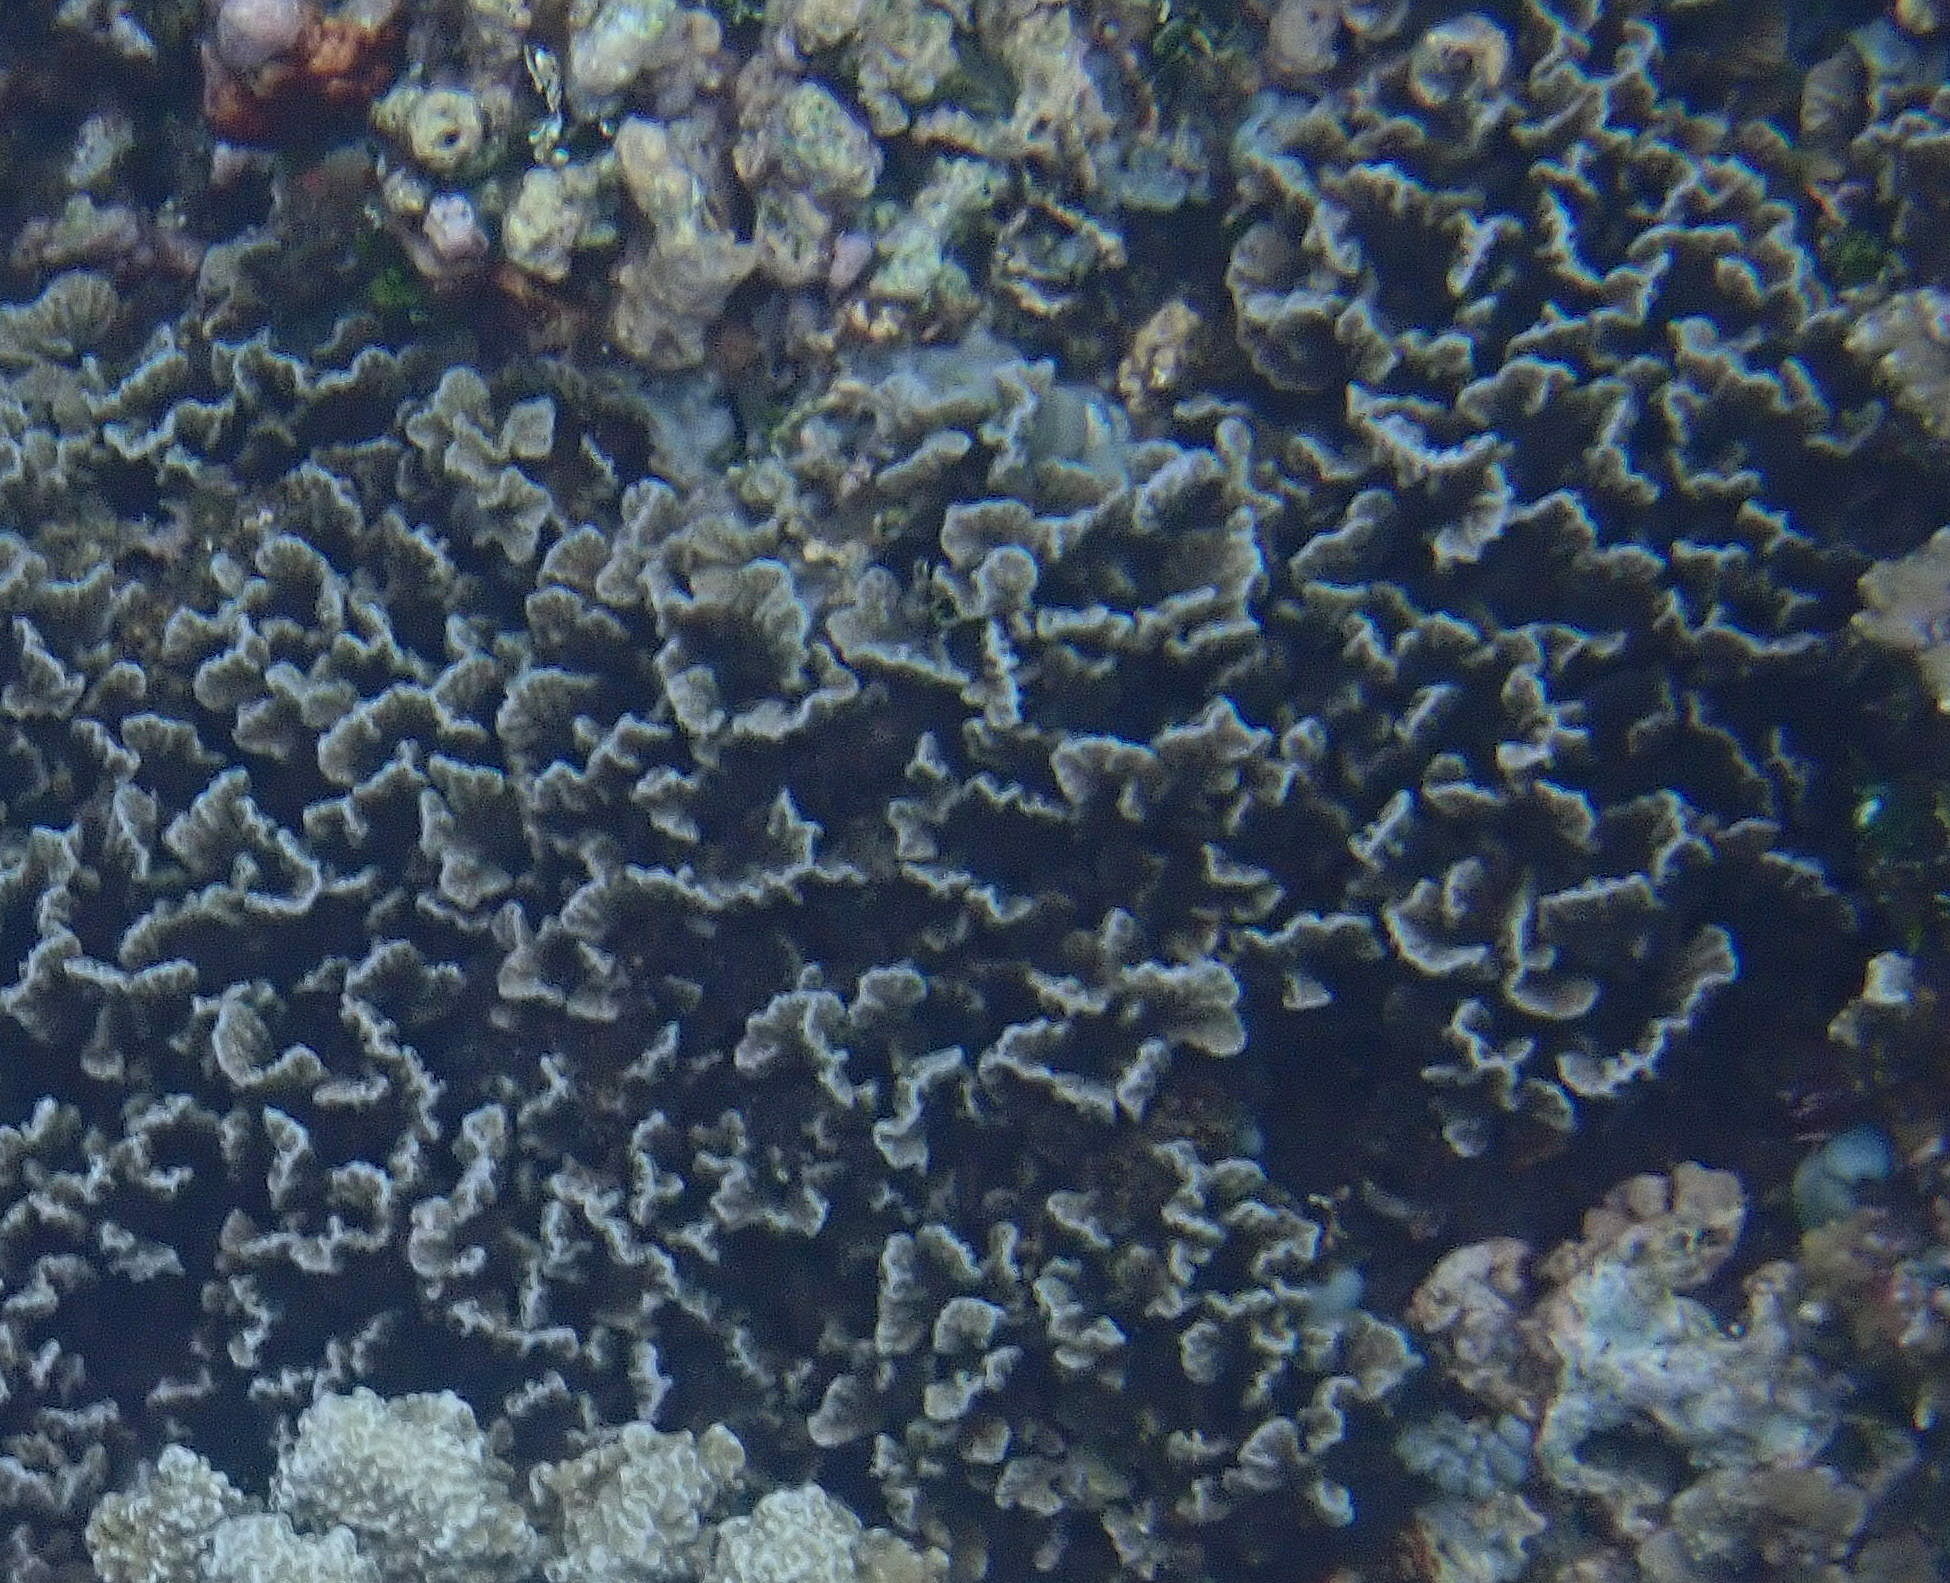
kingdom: Animalia
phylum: Cnidaria
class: Anthozoa
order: Scleractinia
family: Agariciidae
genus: Pavona
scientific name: Pavona frondifera
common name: Leaf coral
